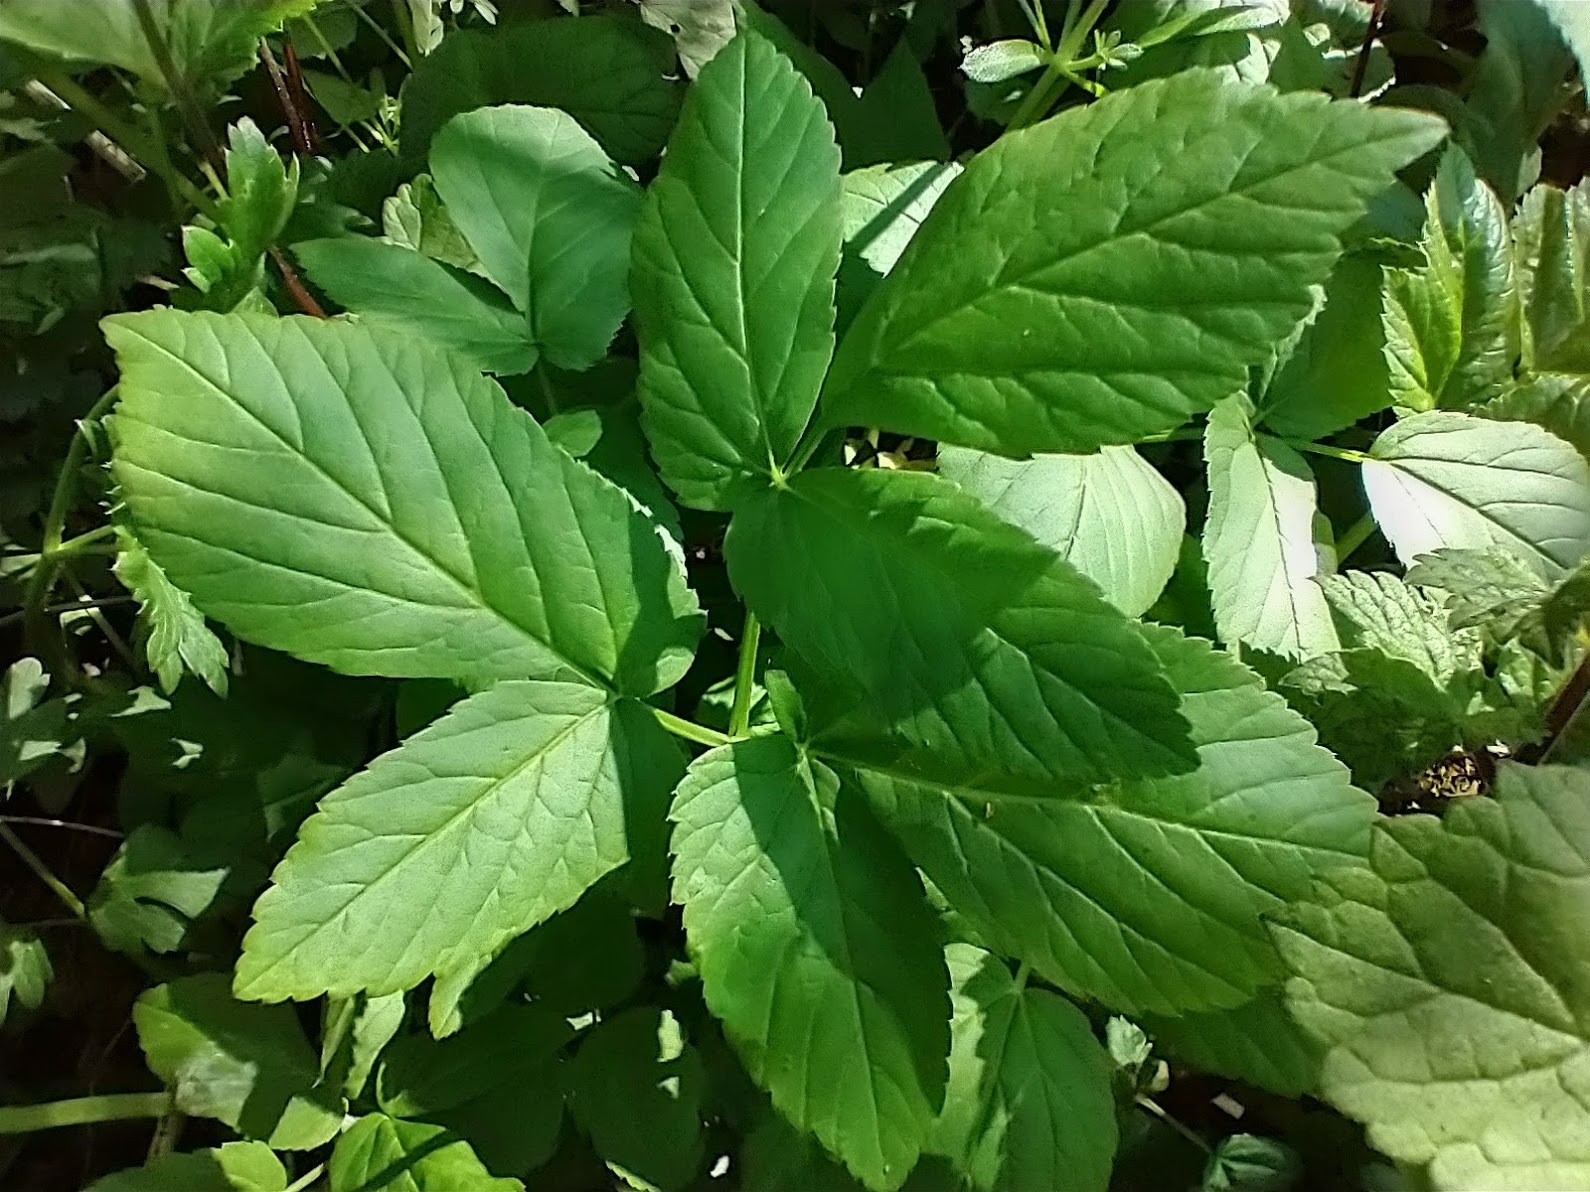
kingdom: Plantae
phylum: Tracheophyta
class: Magnoliopsida
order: Apiales
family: Apiaceae
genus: Aegopodium
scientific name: Aegopodium podagraria
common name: Ground-elder
